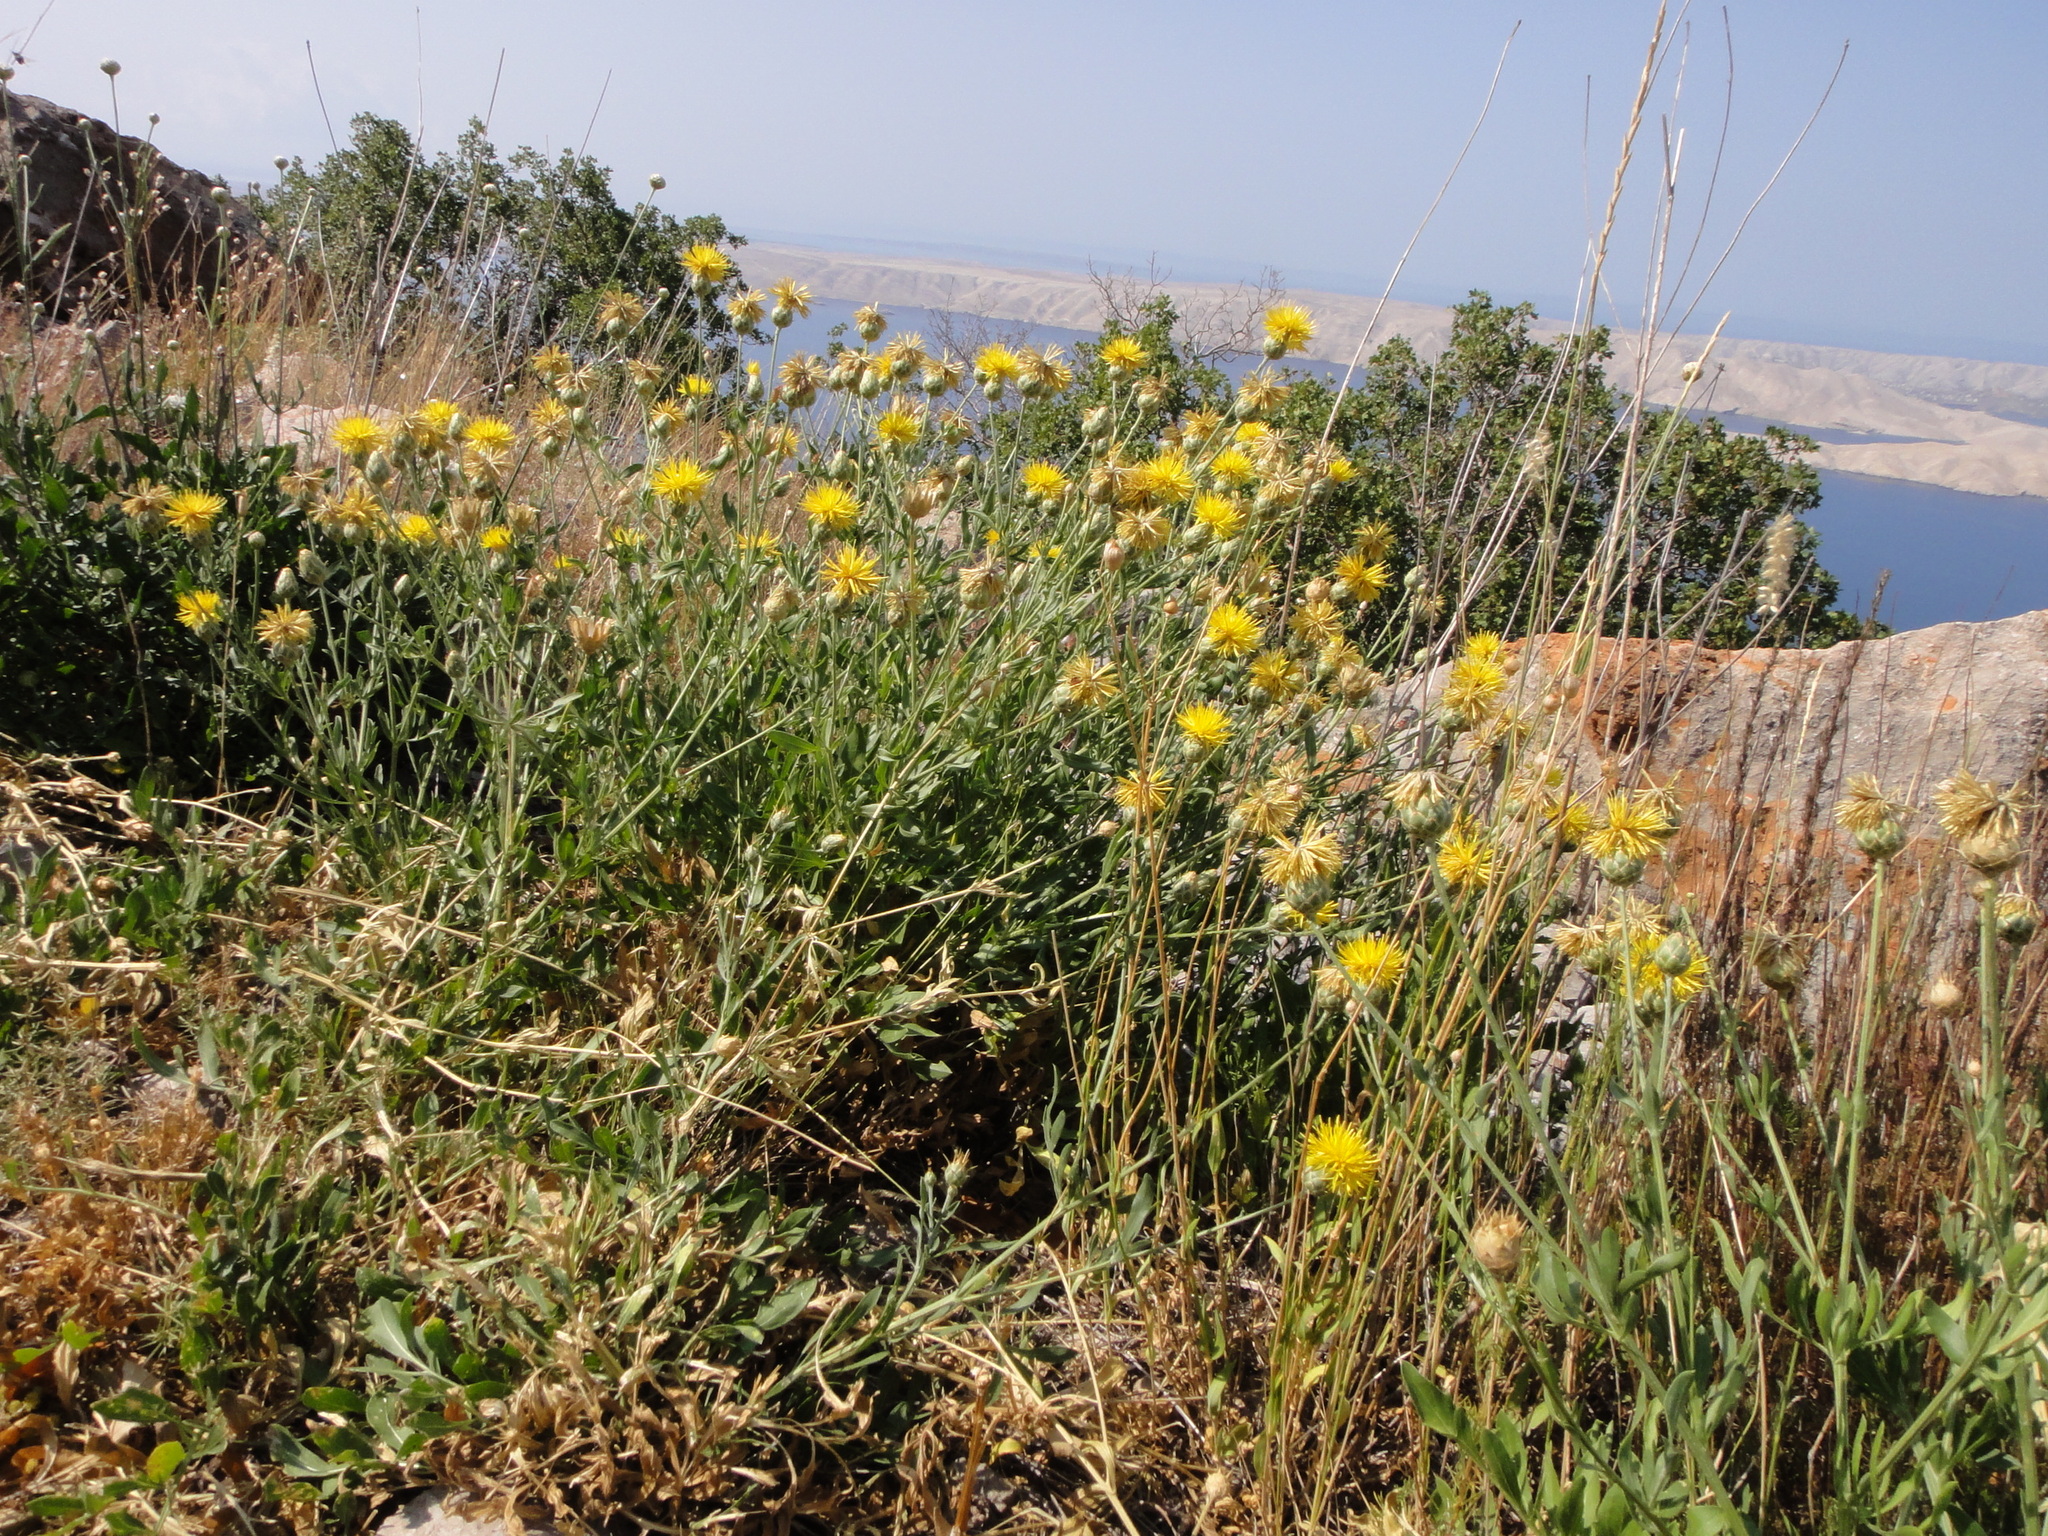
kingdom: Plantae
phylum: Tracheophyta
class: Magnoliopsida
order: Asterales
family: Asteraceae
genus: Centaurea
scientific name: Centaurea rupestris
